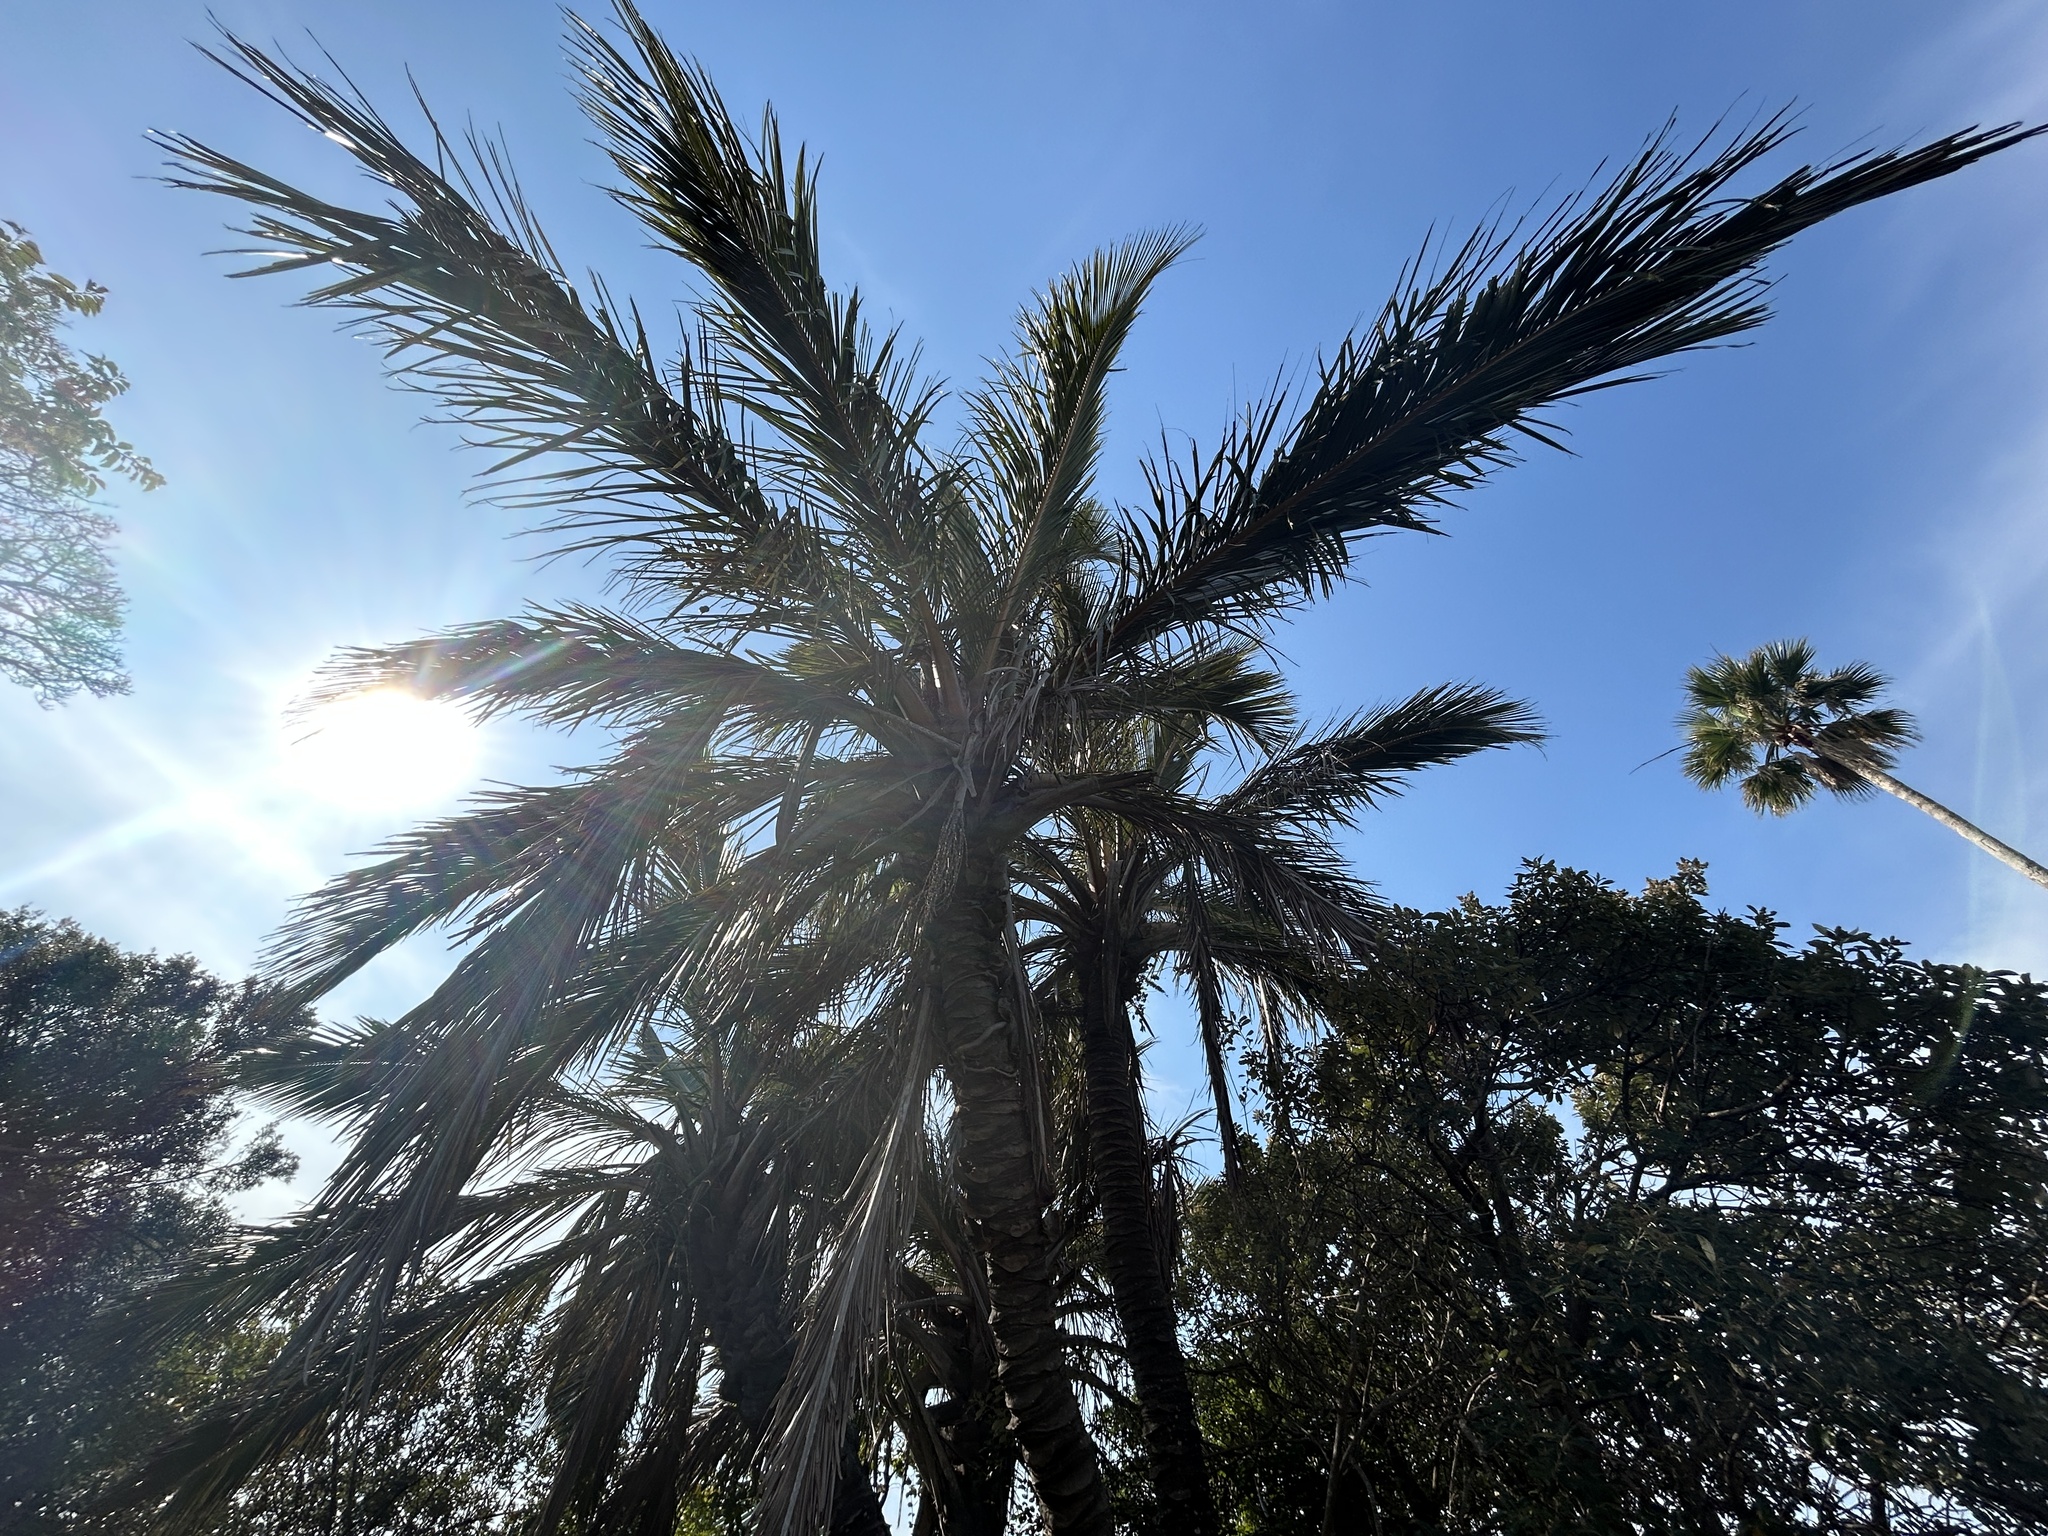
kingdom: Plantae
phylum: Tracheophyta
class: Liliopsida
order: Arecales
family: Arecaceae
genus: Jubaeopsis
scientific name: Jubaeopsis caffra
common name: Pondoland palm
